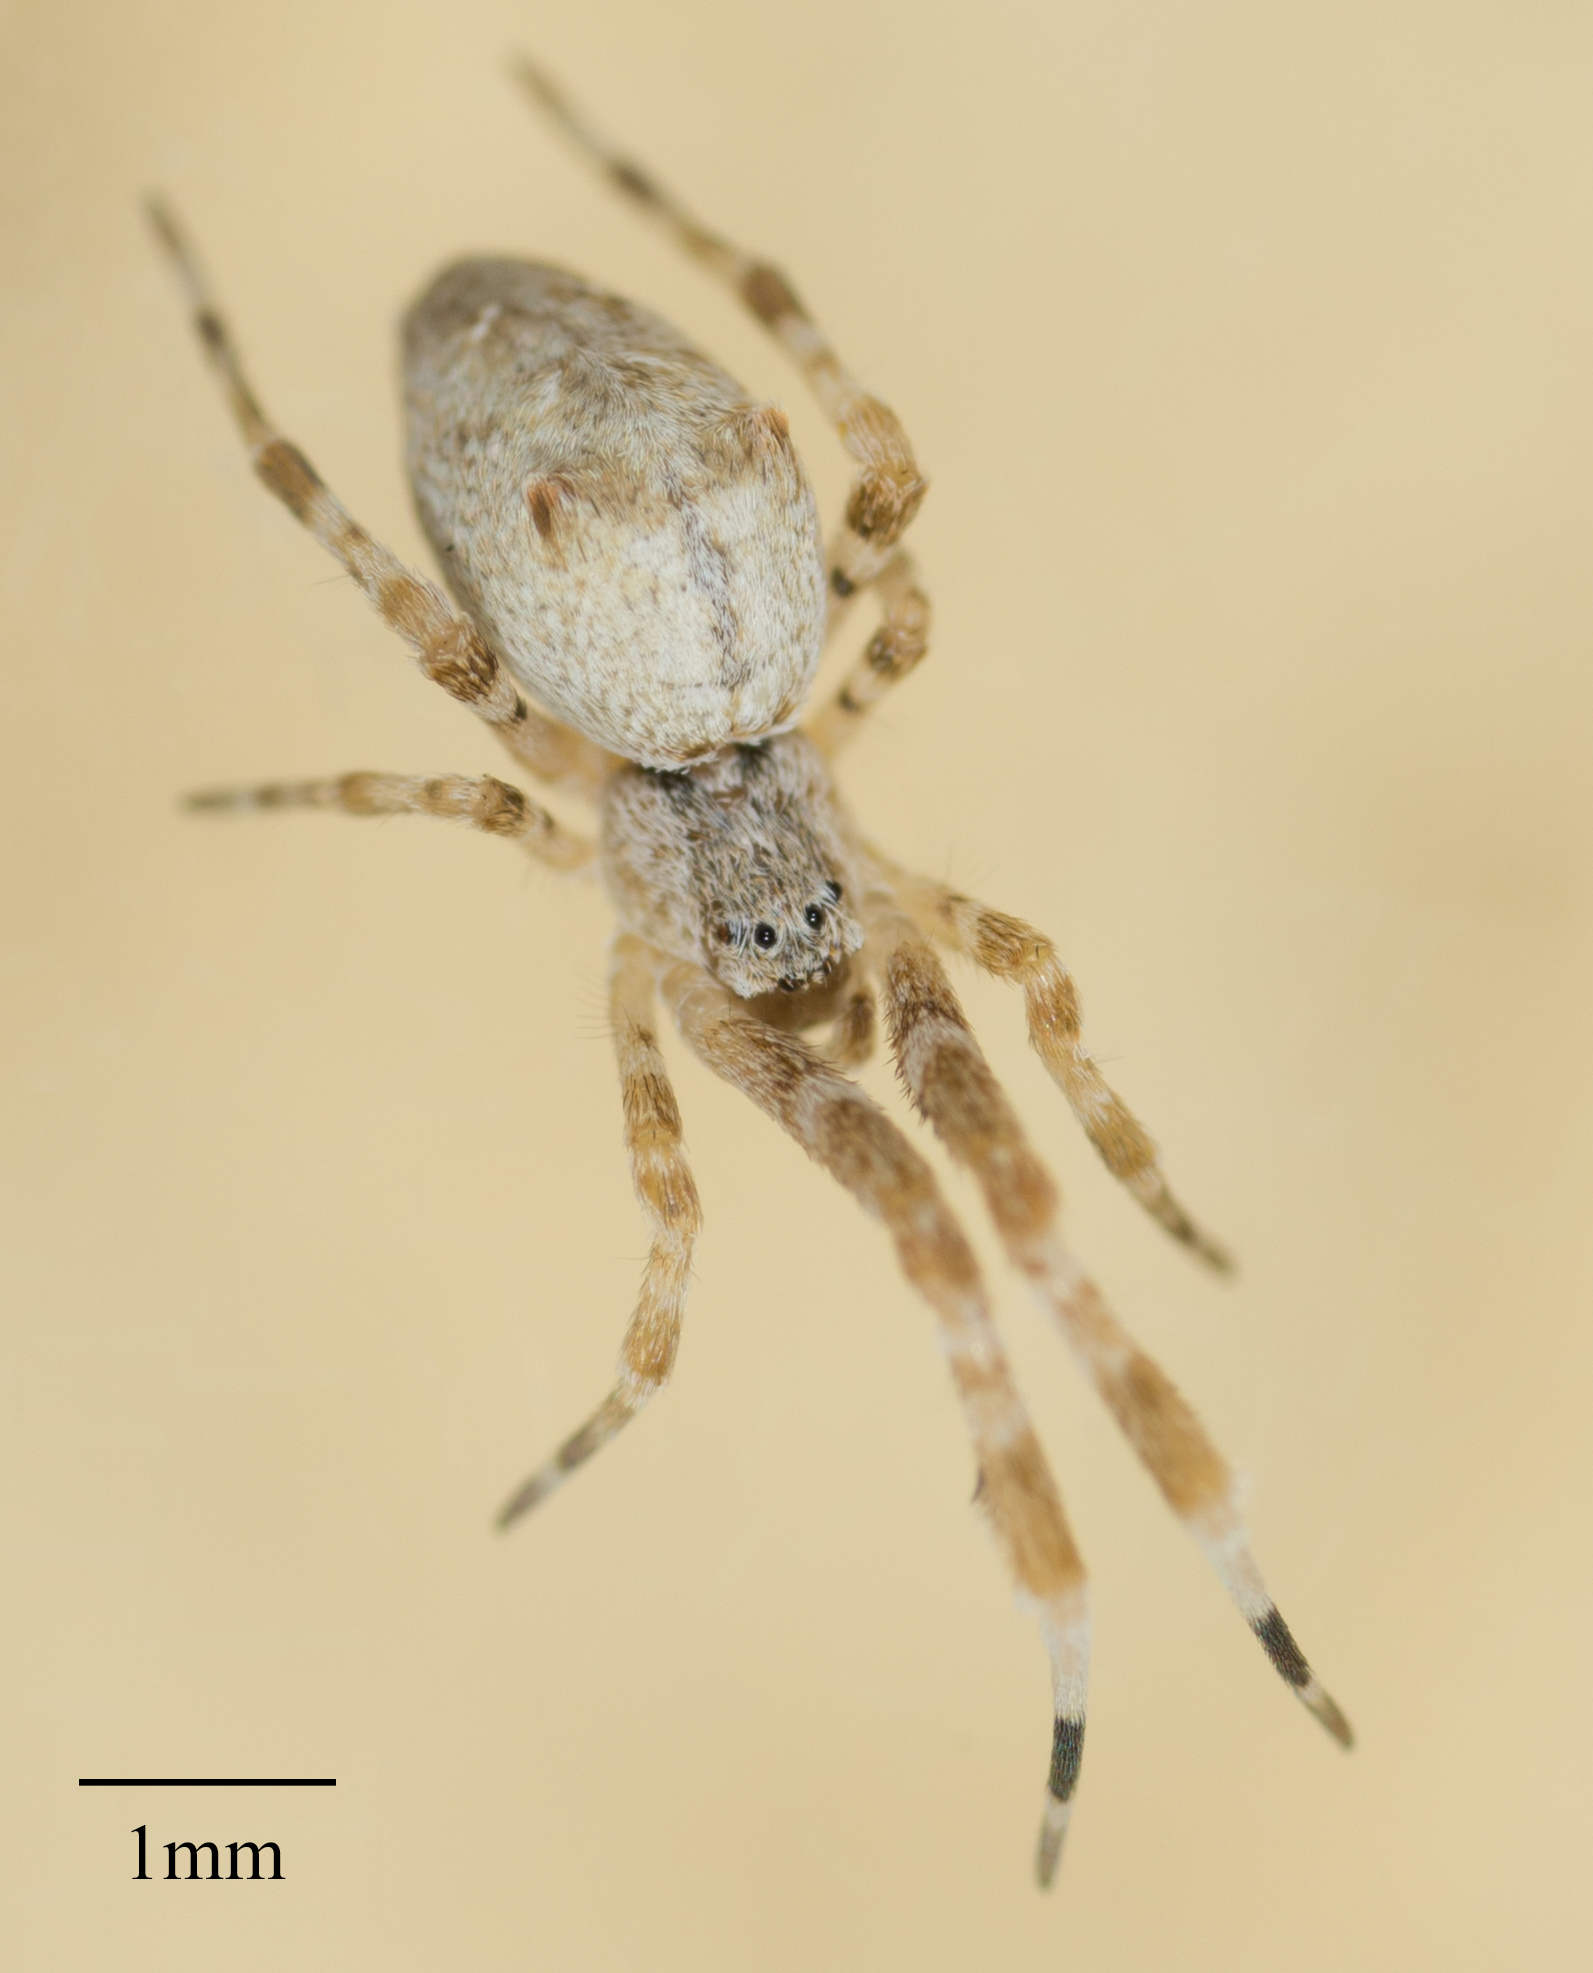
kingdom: Animalia
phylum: Arthropoda
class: Arachnida
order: Araneae
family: Uloboridae
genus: Uloborus
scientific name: Uloborus diversus
